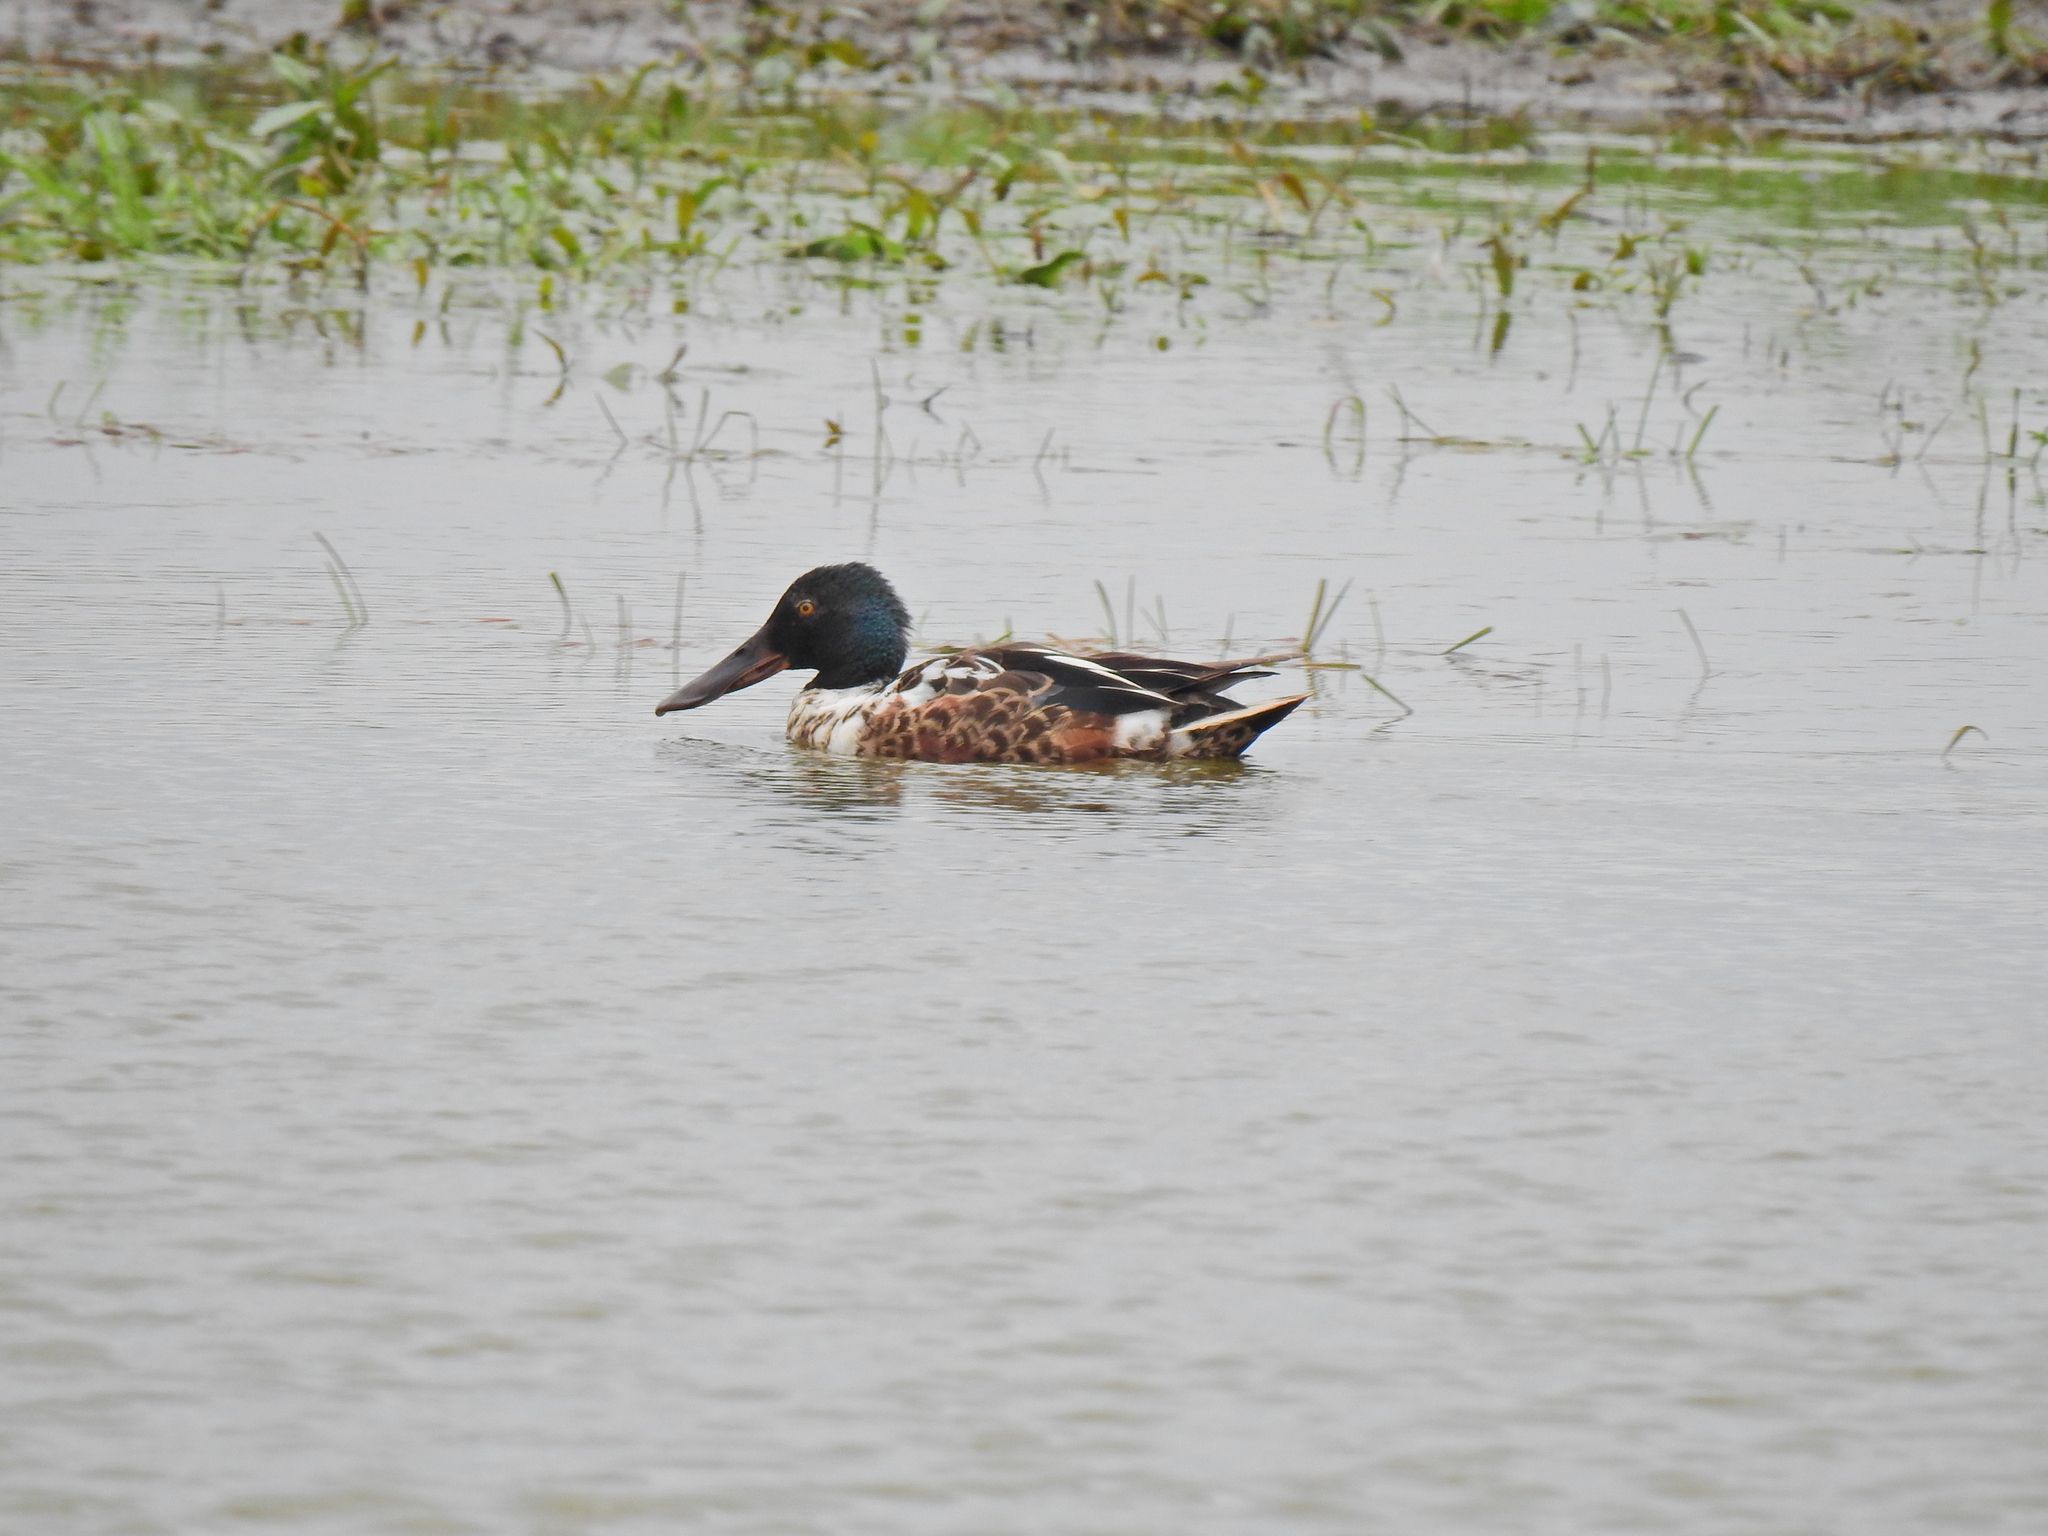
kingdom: Animalia
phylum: Chordata
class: Aves
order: Anseriformes
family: Anatidae
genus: Spatula
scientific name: Spatula clypeata
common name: Northern shoveler
